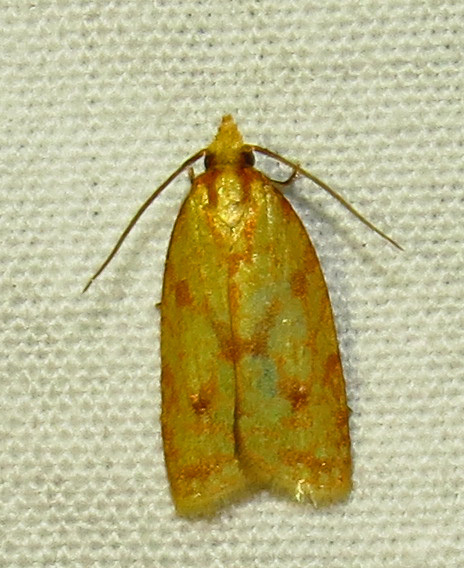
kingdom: Animalia
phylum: Arthropoda
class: Insecta
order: Lepidoptera
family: Tortricidae
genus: Sparganothis
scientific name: Sparganothis sulfureana
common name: Sparganothis fruitworm moth
